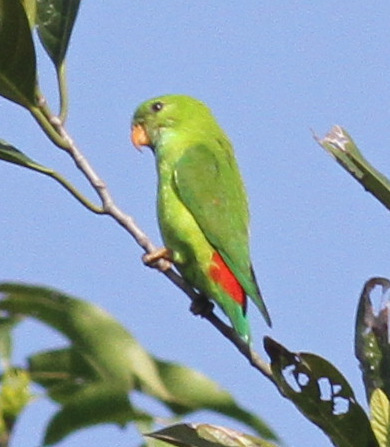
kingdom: Animalia
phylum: Chordata
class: Aves
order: Psittaciformes
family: Psittacidae
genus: Loriculus
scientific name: Loriculus vernalis
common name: Vernal hanging parrot
